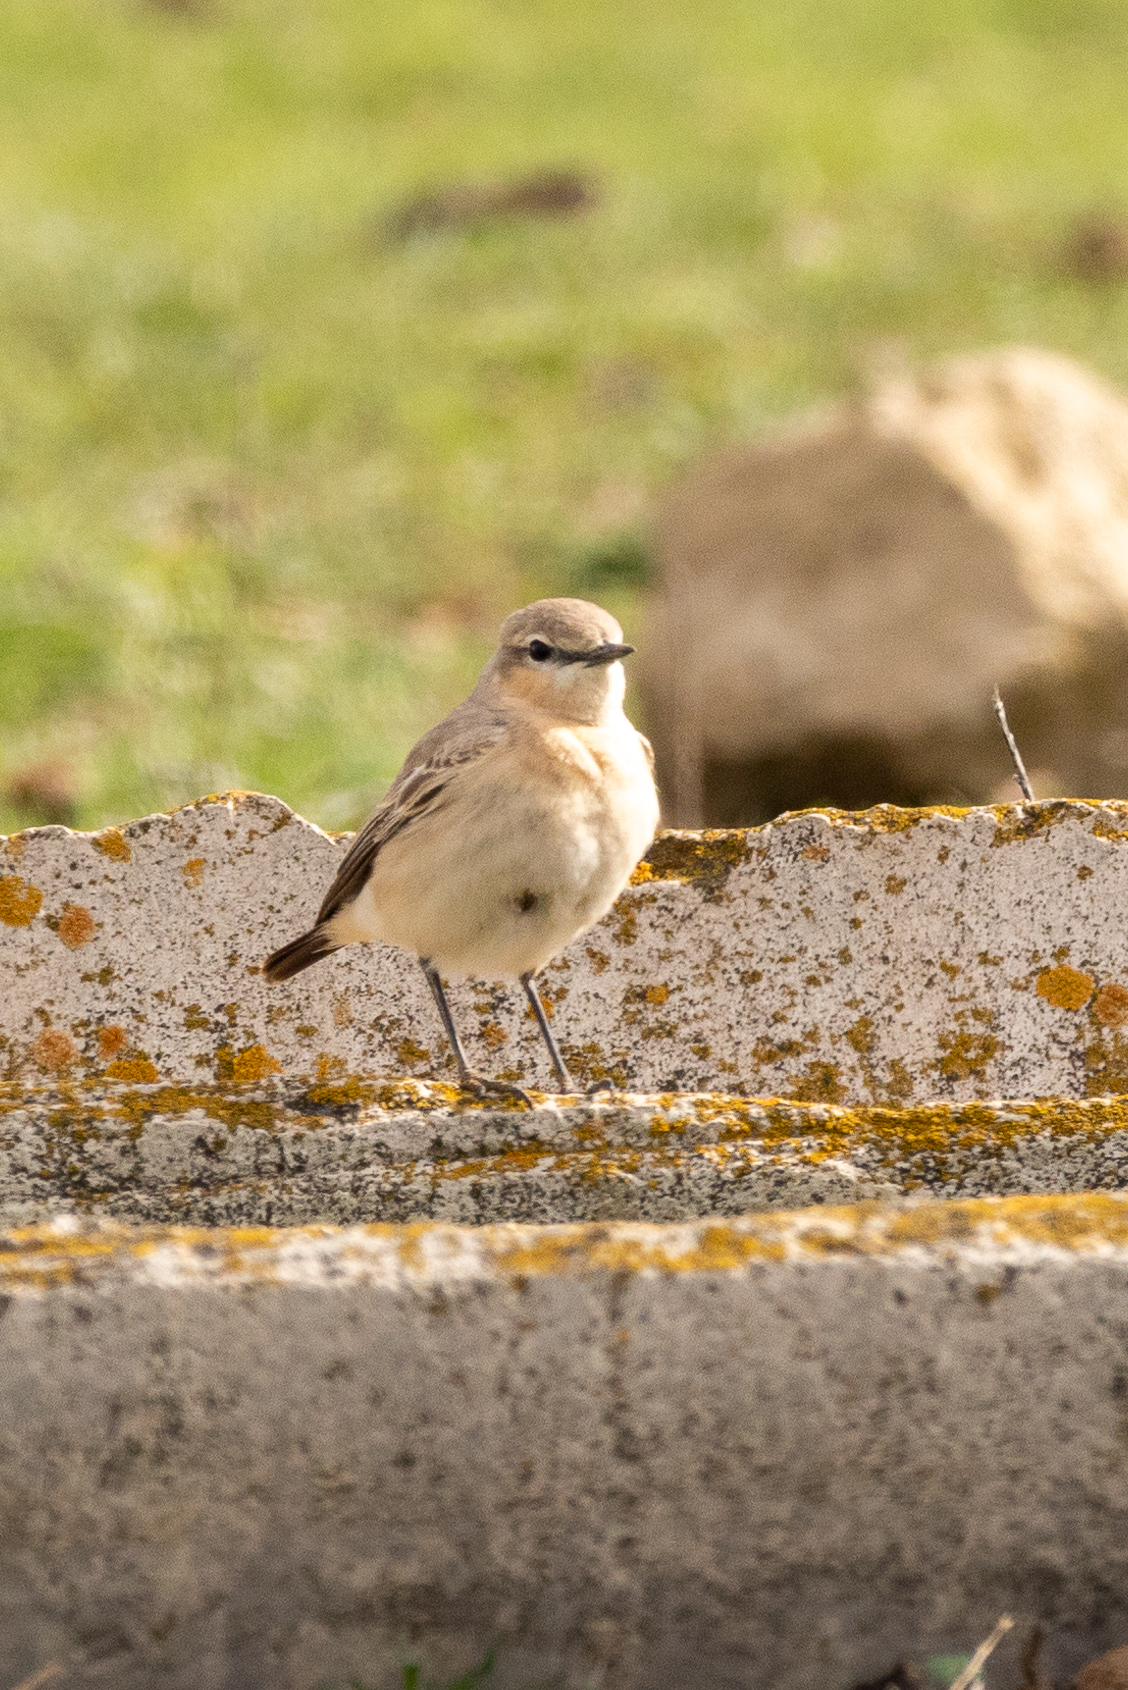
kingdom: Animalia
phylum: Chordata
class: Aves
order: Passeriformes
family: Muscicapidae
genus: Oenanthe
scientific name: Oenanthe isabellina
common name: Isabelline wheatear
